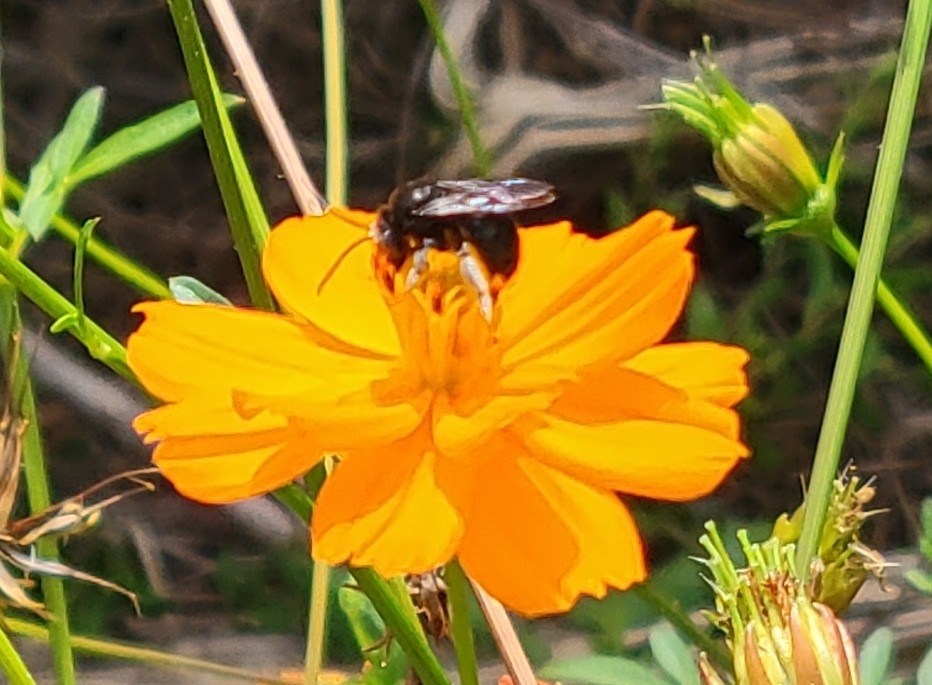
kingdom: Animalia
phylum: Arthropoda
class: Insecta
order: Hymenoptera
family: Apidae
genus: Melissodes
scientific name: Melissodes bimaculatus
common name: Two-spotted long-horned bee
